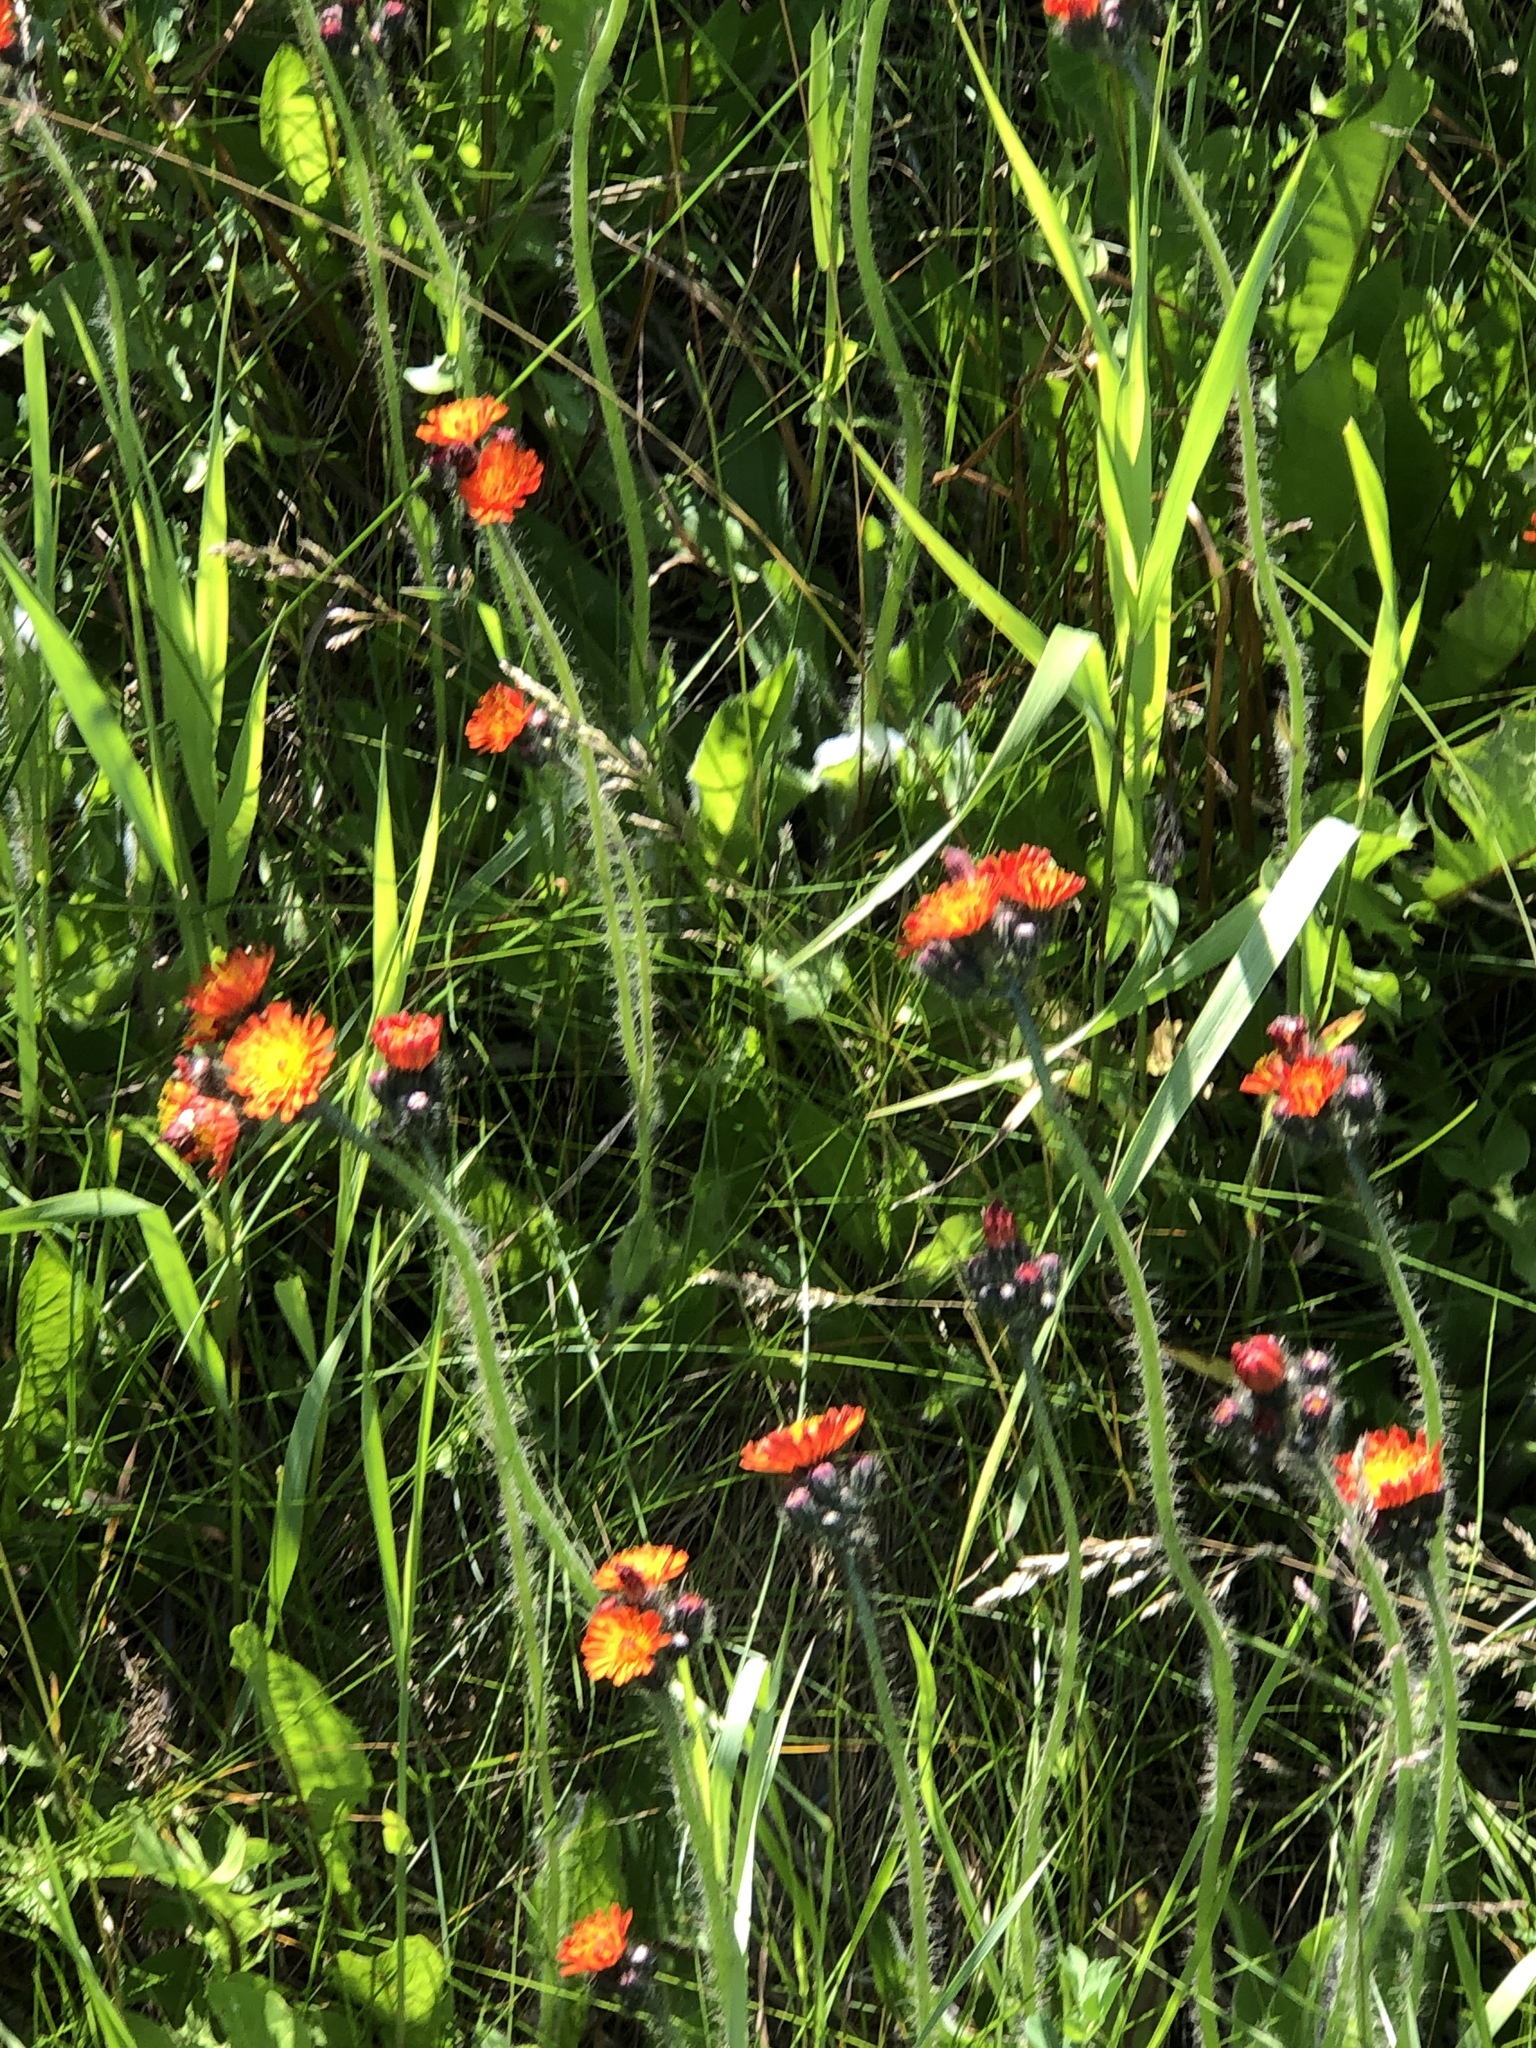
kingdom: Plantae
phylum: Tracheophyta
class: Magnoliopsida
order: Asterales
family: Asteraceae
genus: Pilosella
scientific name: Pilosella aurantiaca
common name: Fox-and-cubs
